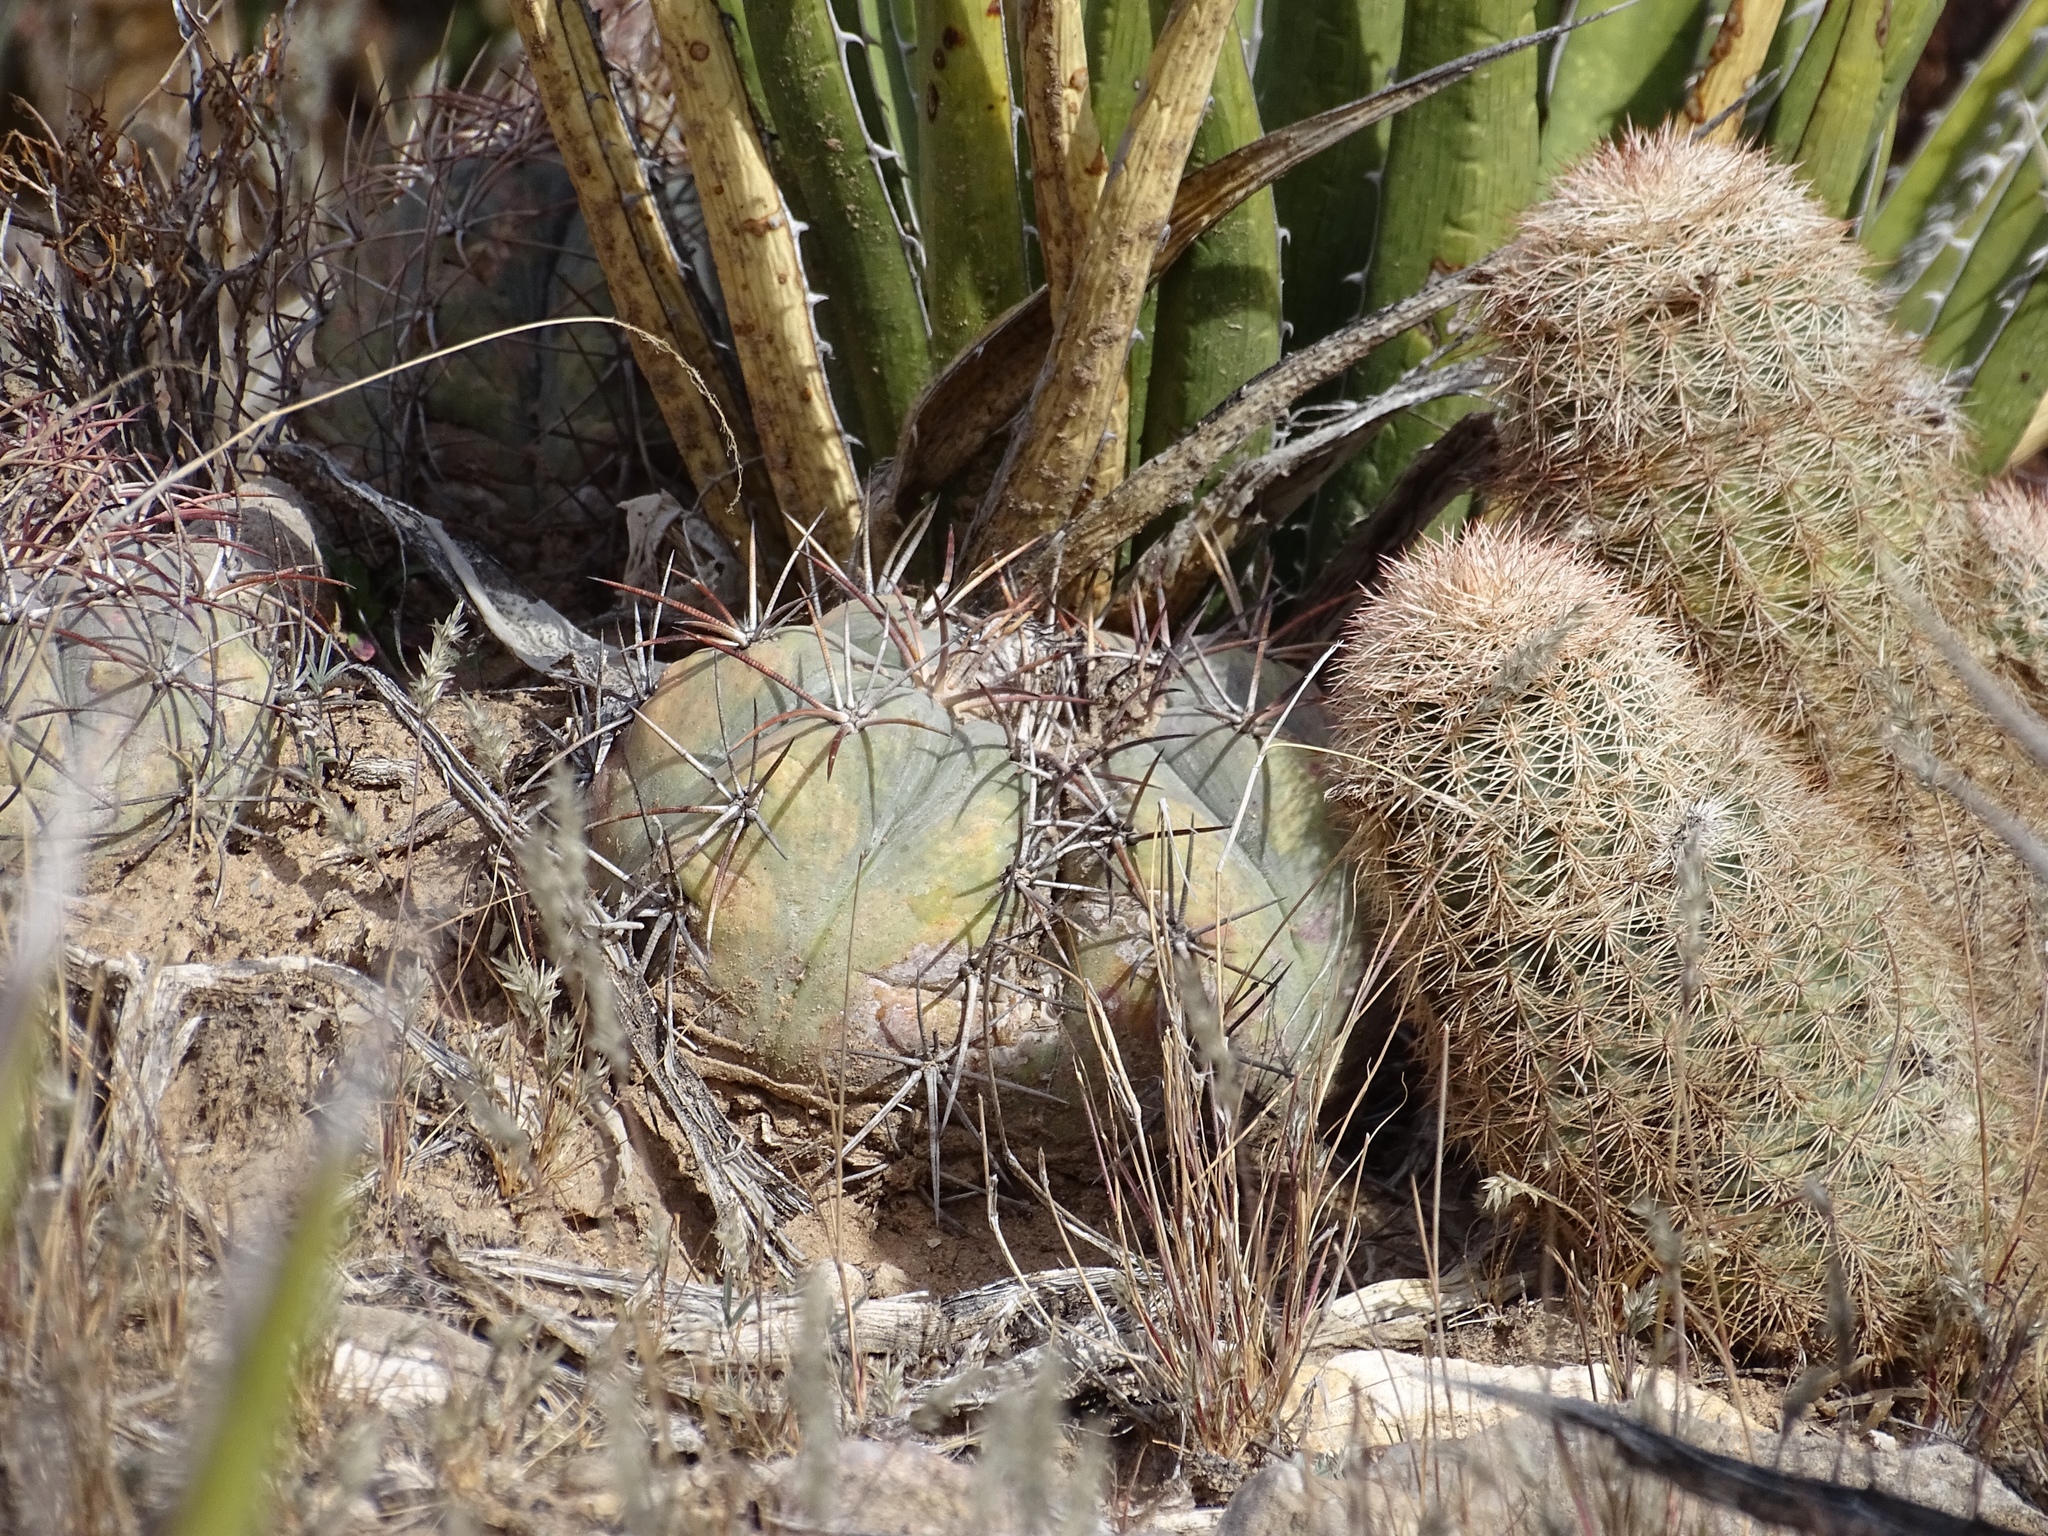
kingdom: Plantae
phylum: Tracheophyta
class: Magnoliopsida
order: Caryophyllales
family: Cactaceae
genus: Echinocactus
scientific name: Echinocactus horizonthalonius
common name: Devilshead
